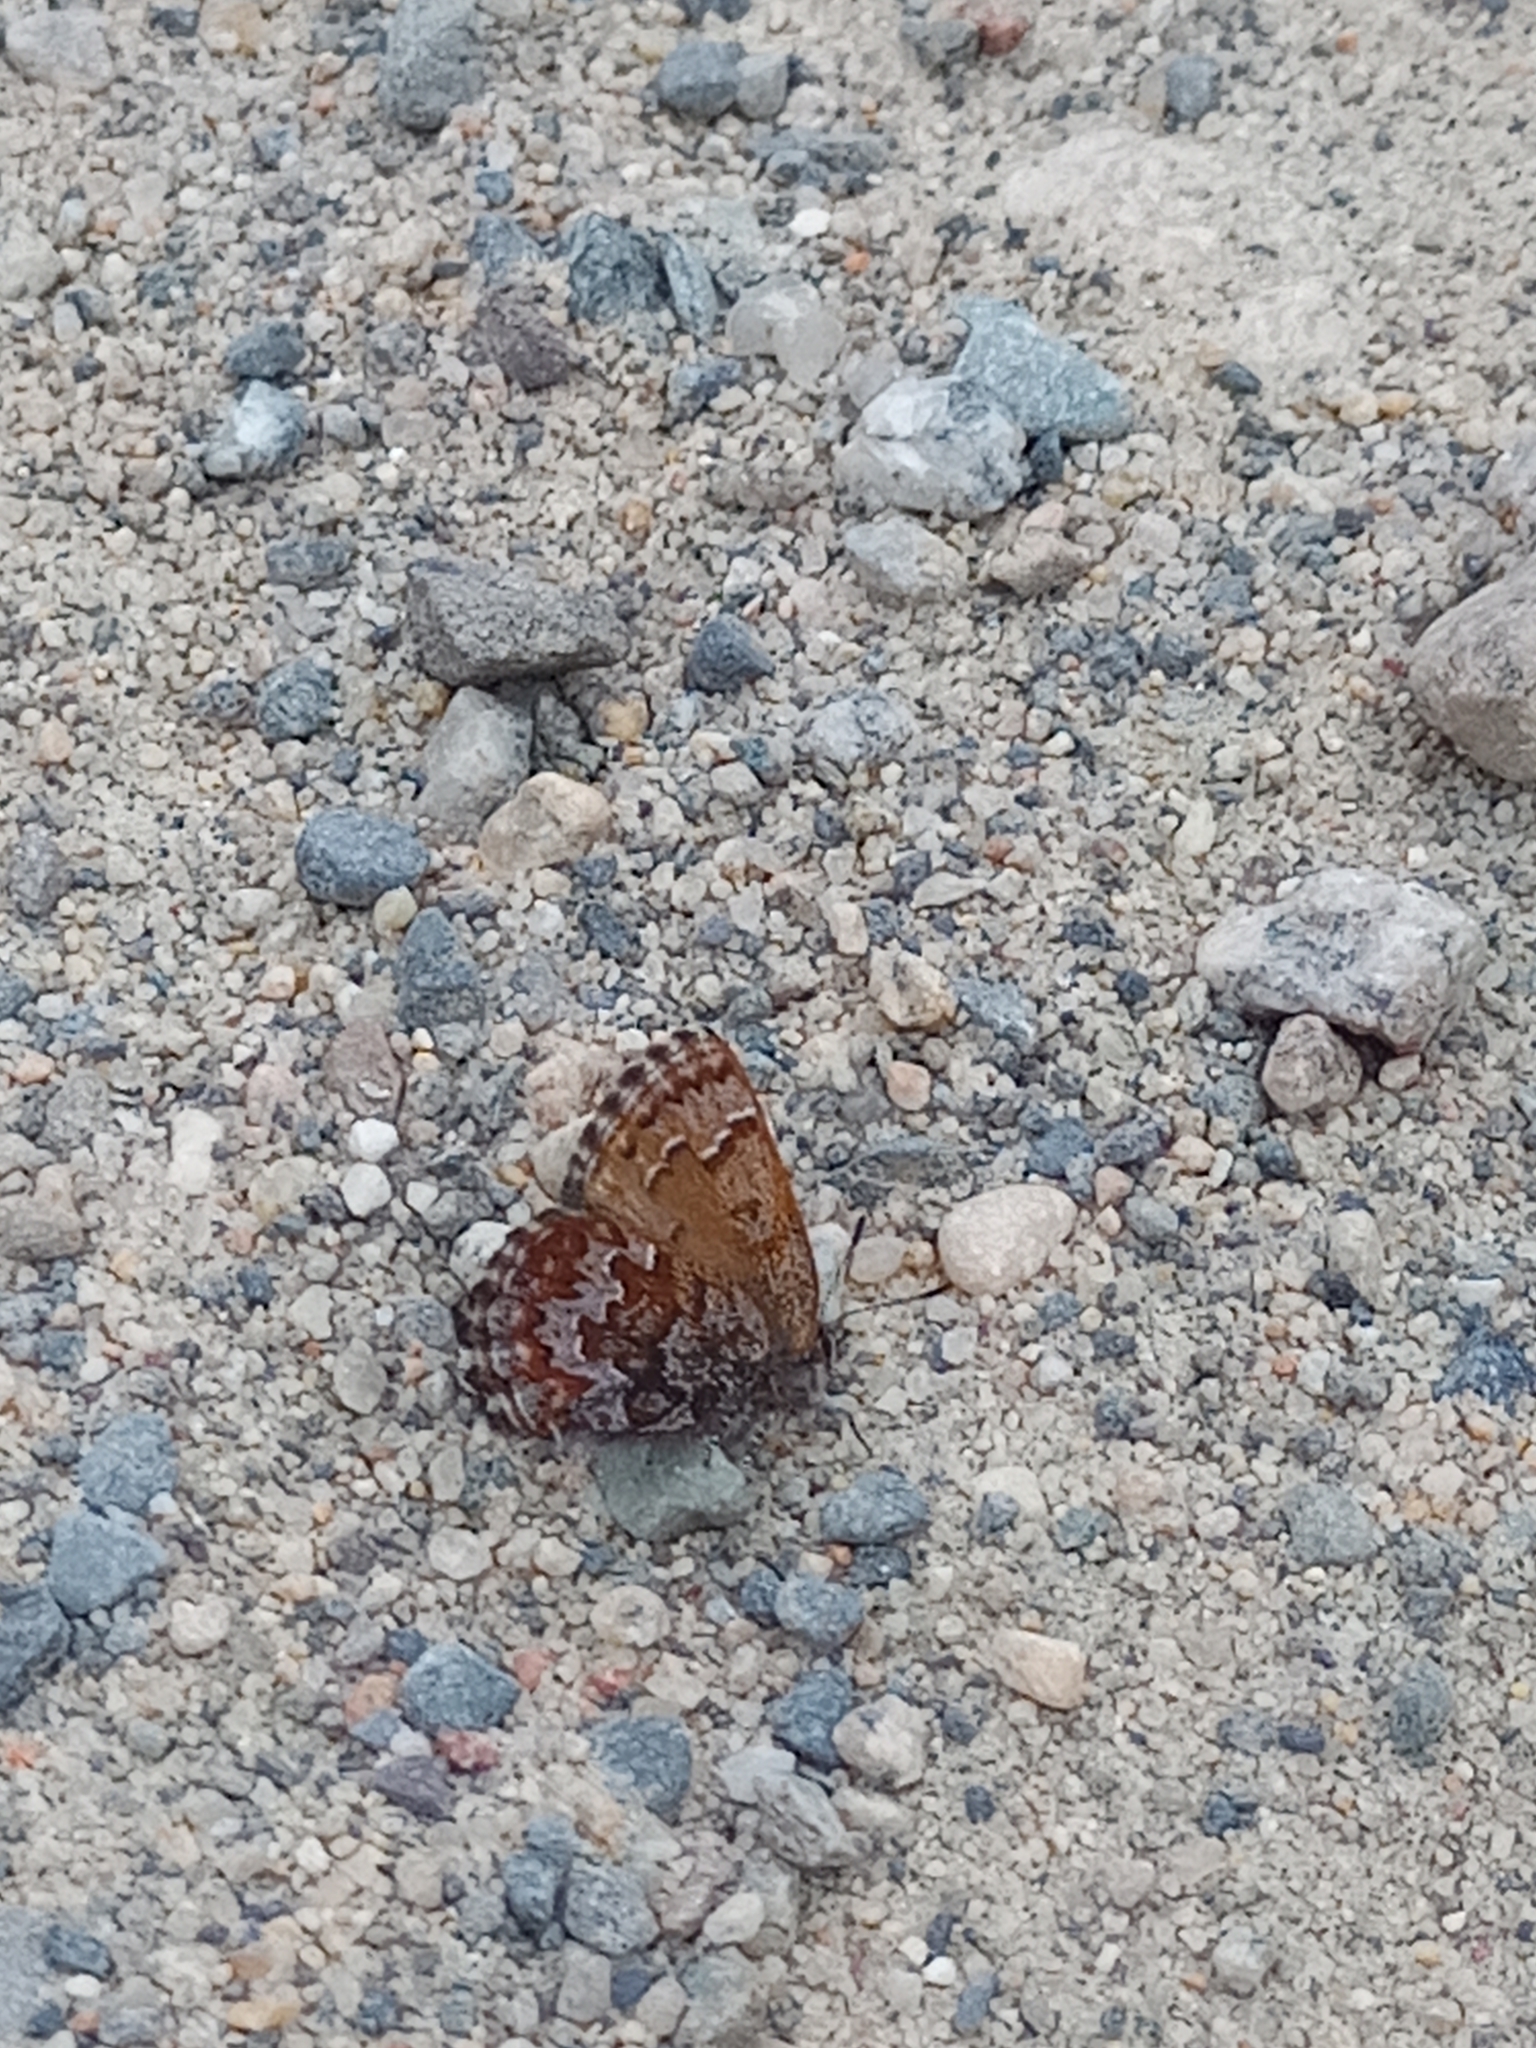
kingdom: Animalia
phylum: Arthropoda
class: Insecta
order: Lepidoptera
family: Lycaenidae
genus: Incisalia
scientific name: Incisalia niphon
